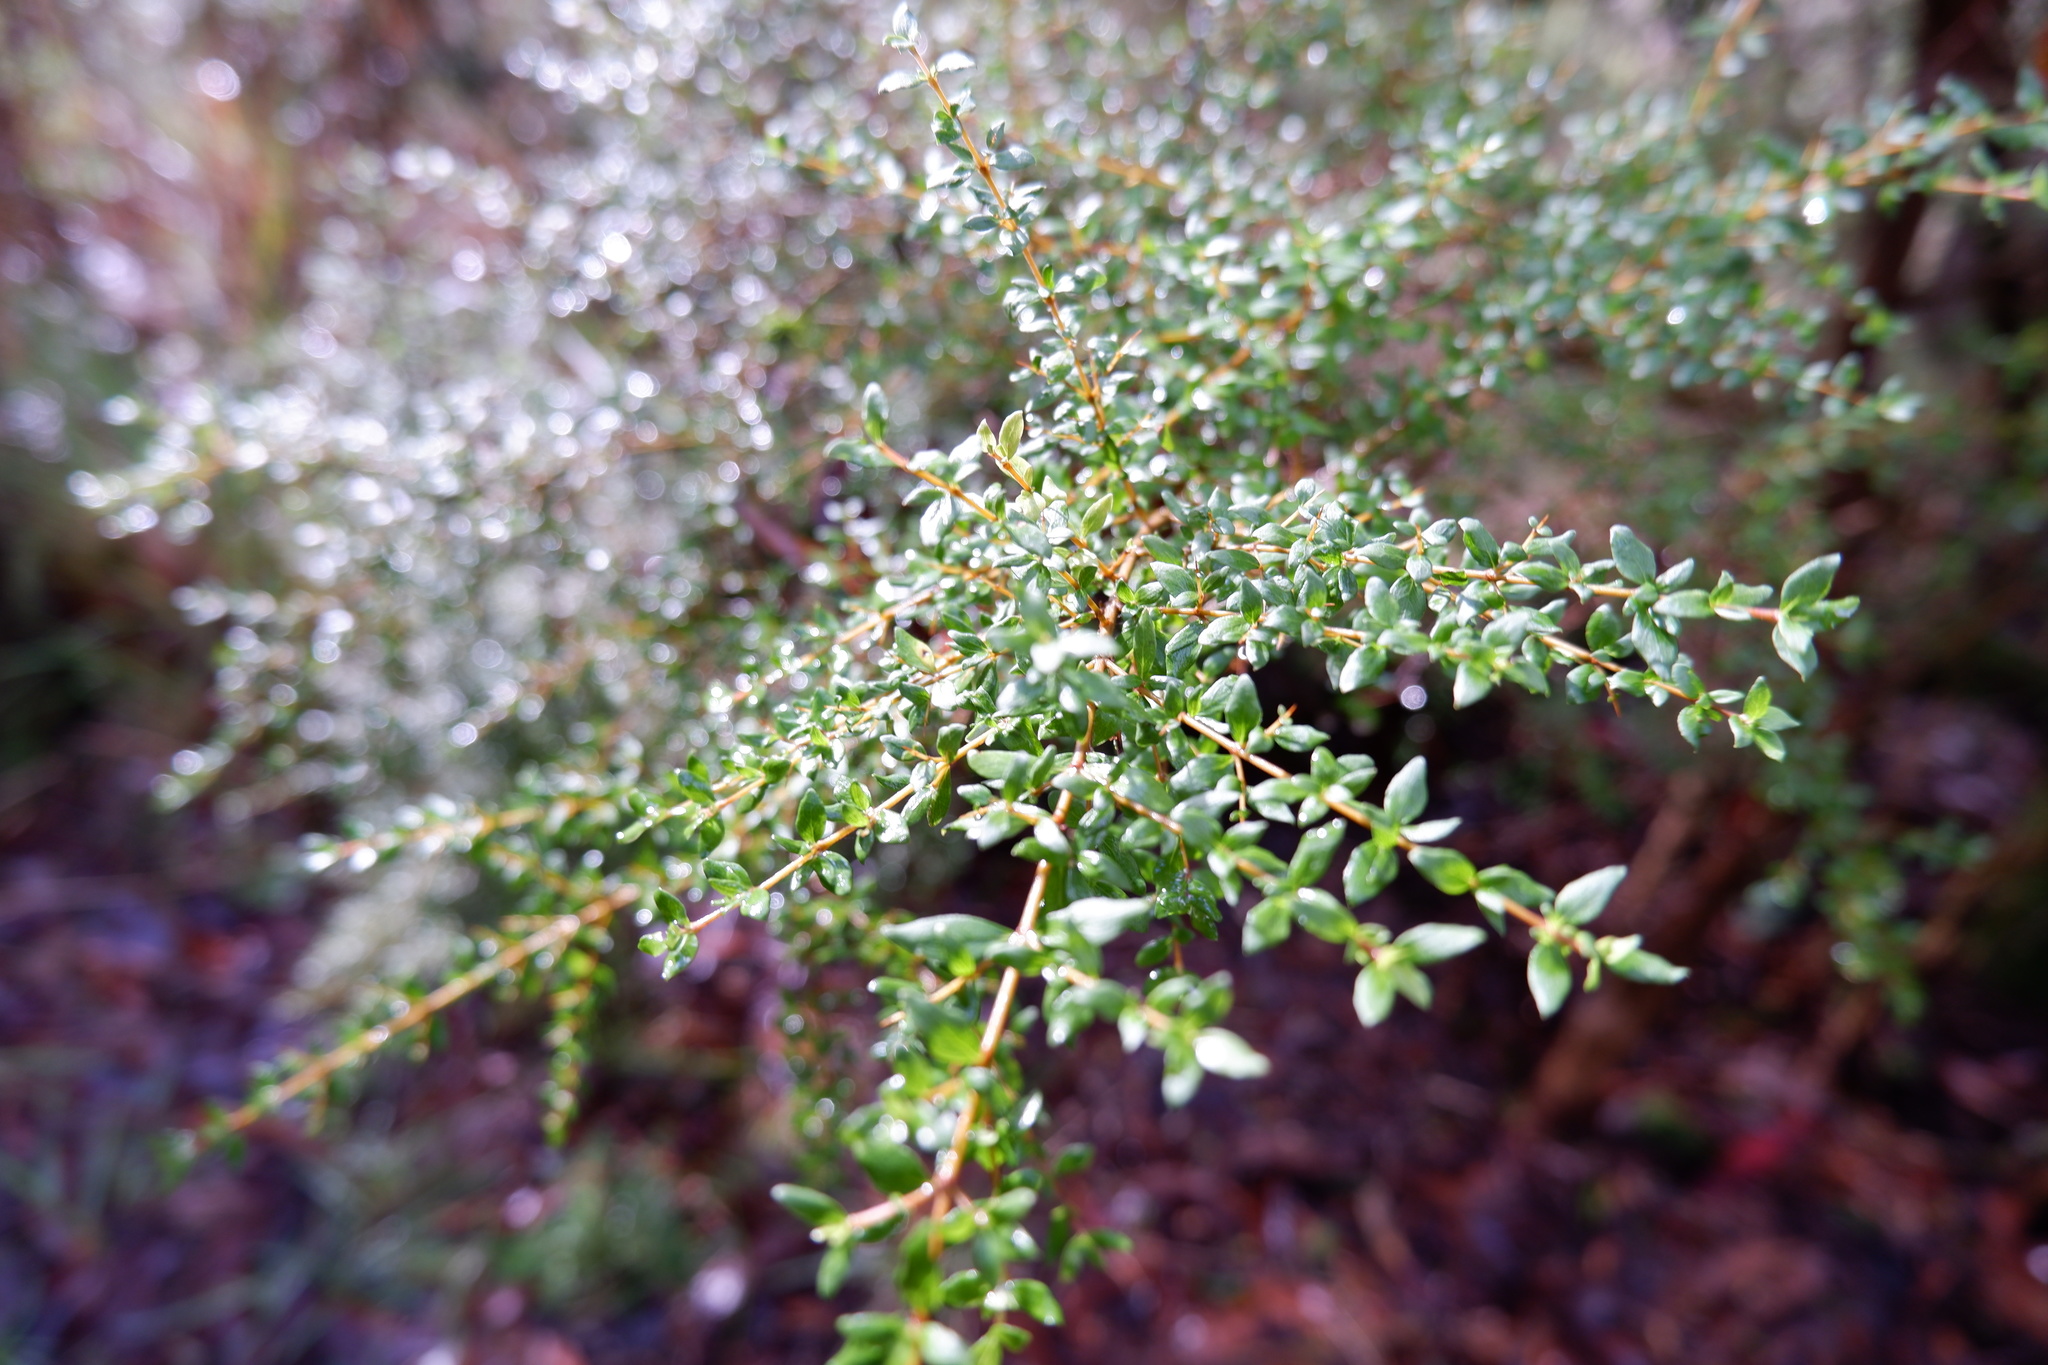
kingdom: Plantae
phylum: Tracheophyta
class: Magnoliopsida
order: Gentianales
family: Rubiaceae
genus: Coprosma
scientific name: Coprosma quadrifida
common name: Prickly currantbush
